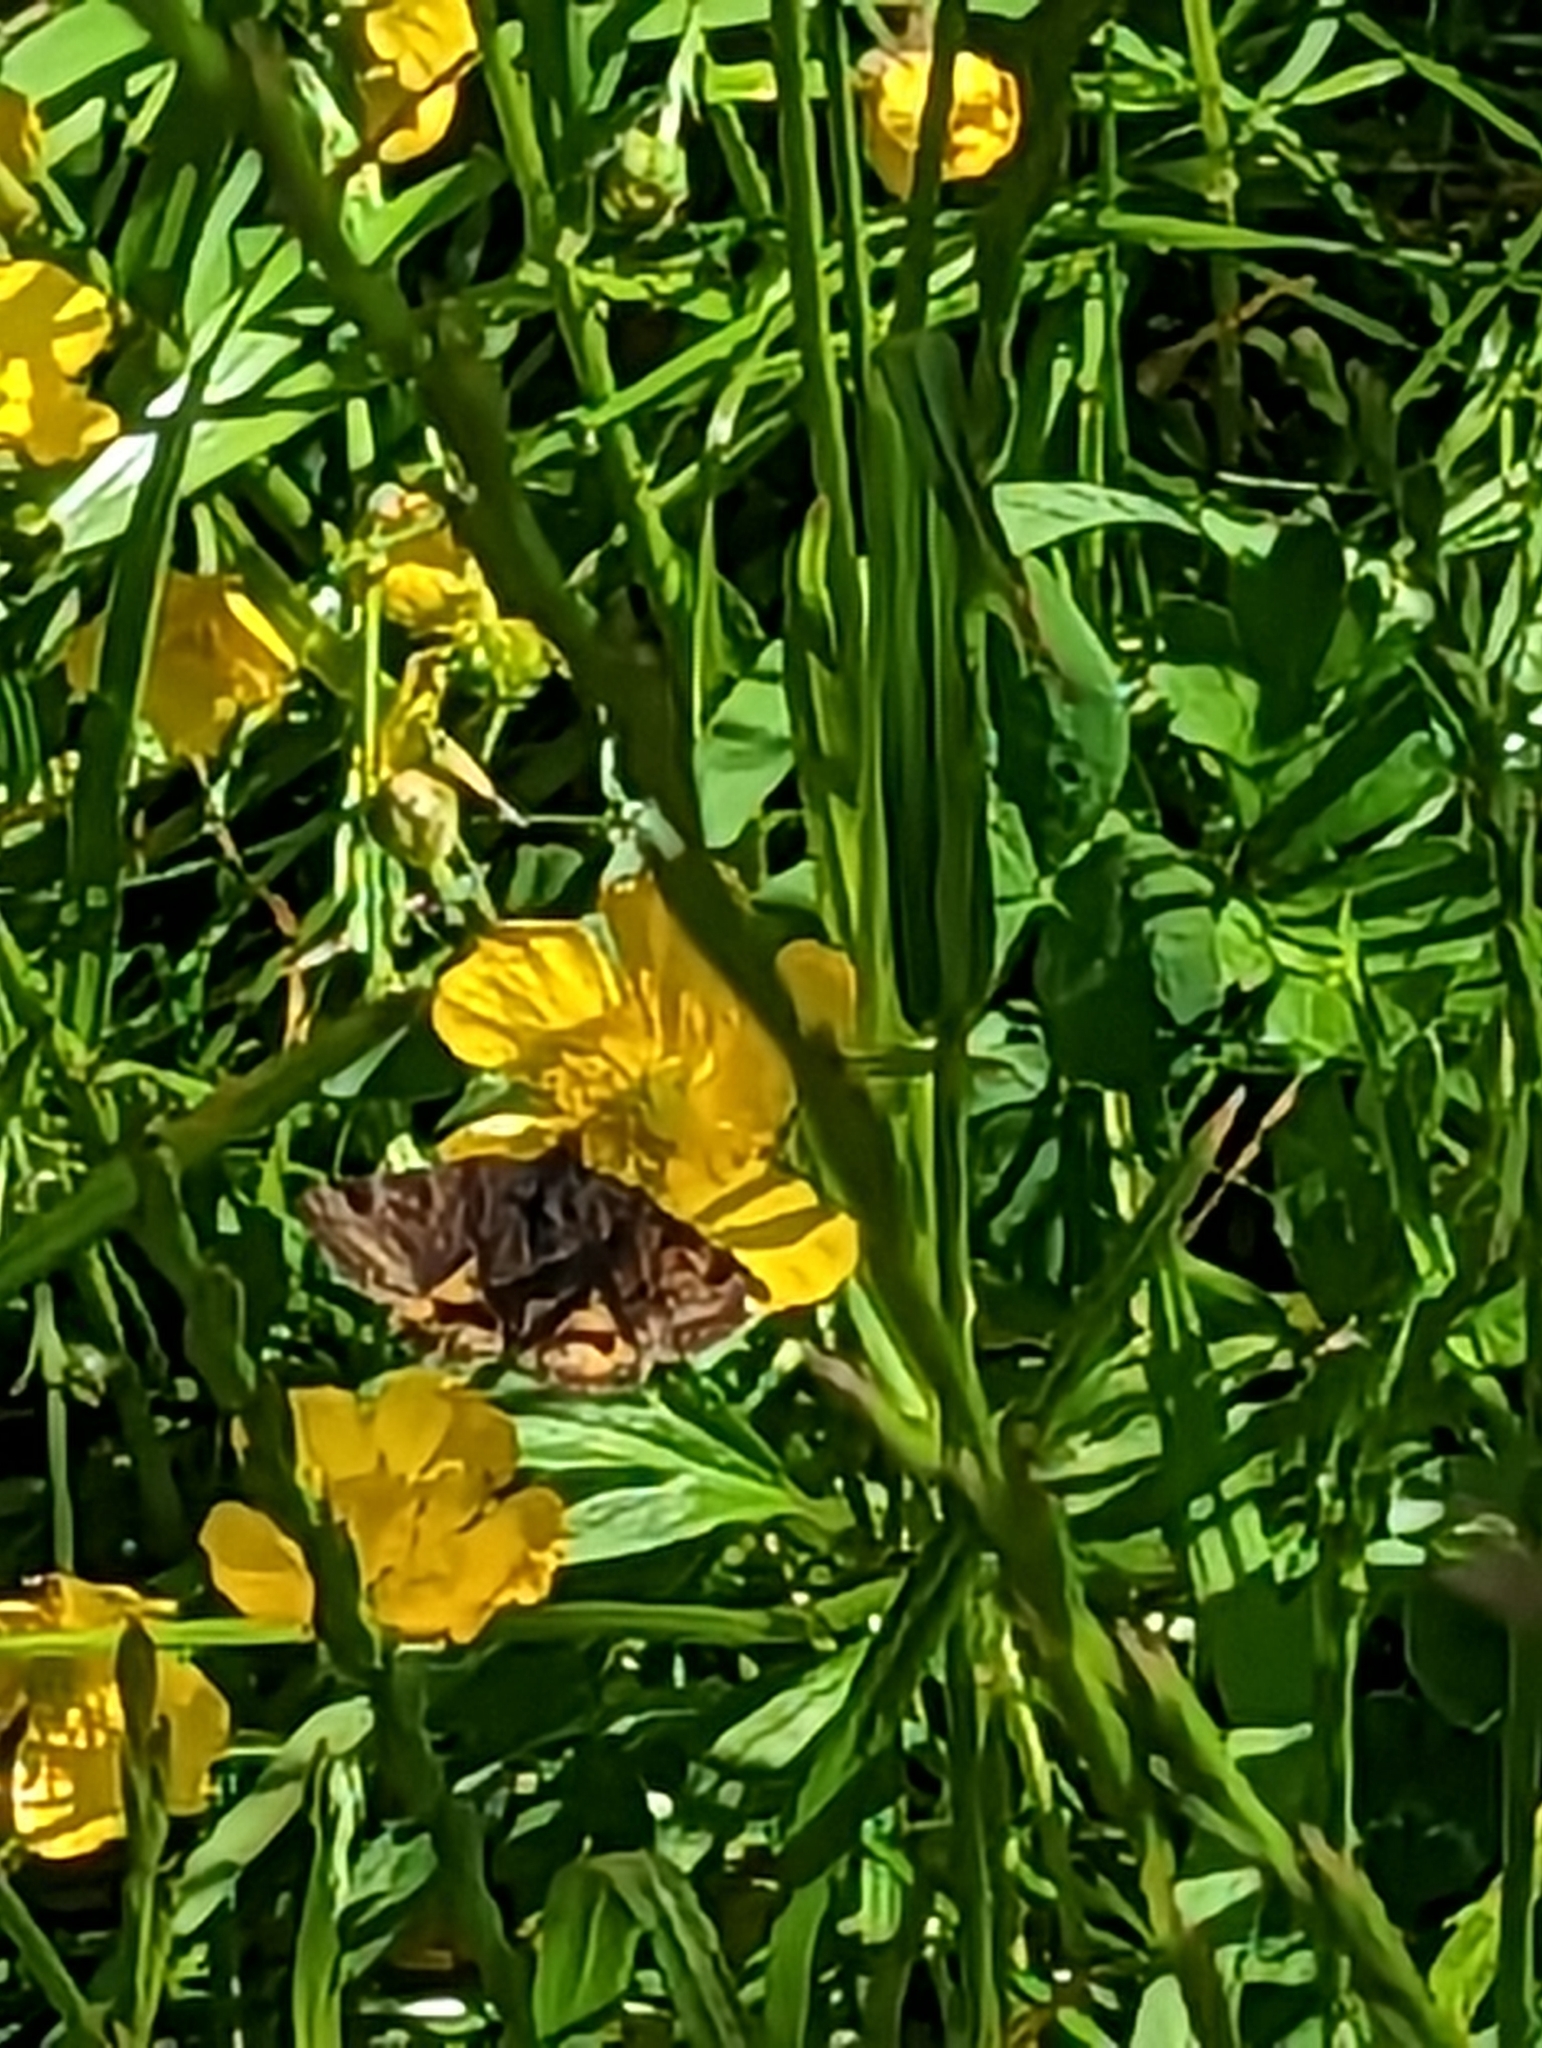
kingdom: Animalia
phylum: Arthropoda
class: Insecta
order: Lepidoptera
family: Erebidae
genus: Euclidia
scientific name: Euclidia glyphica
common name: Burnet companion
